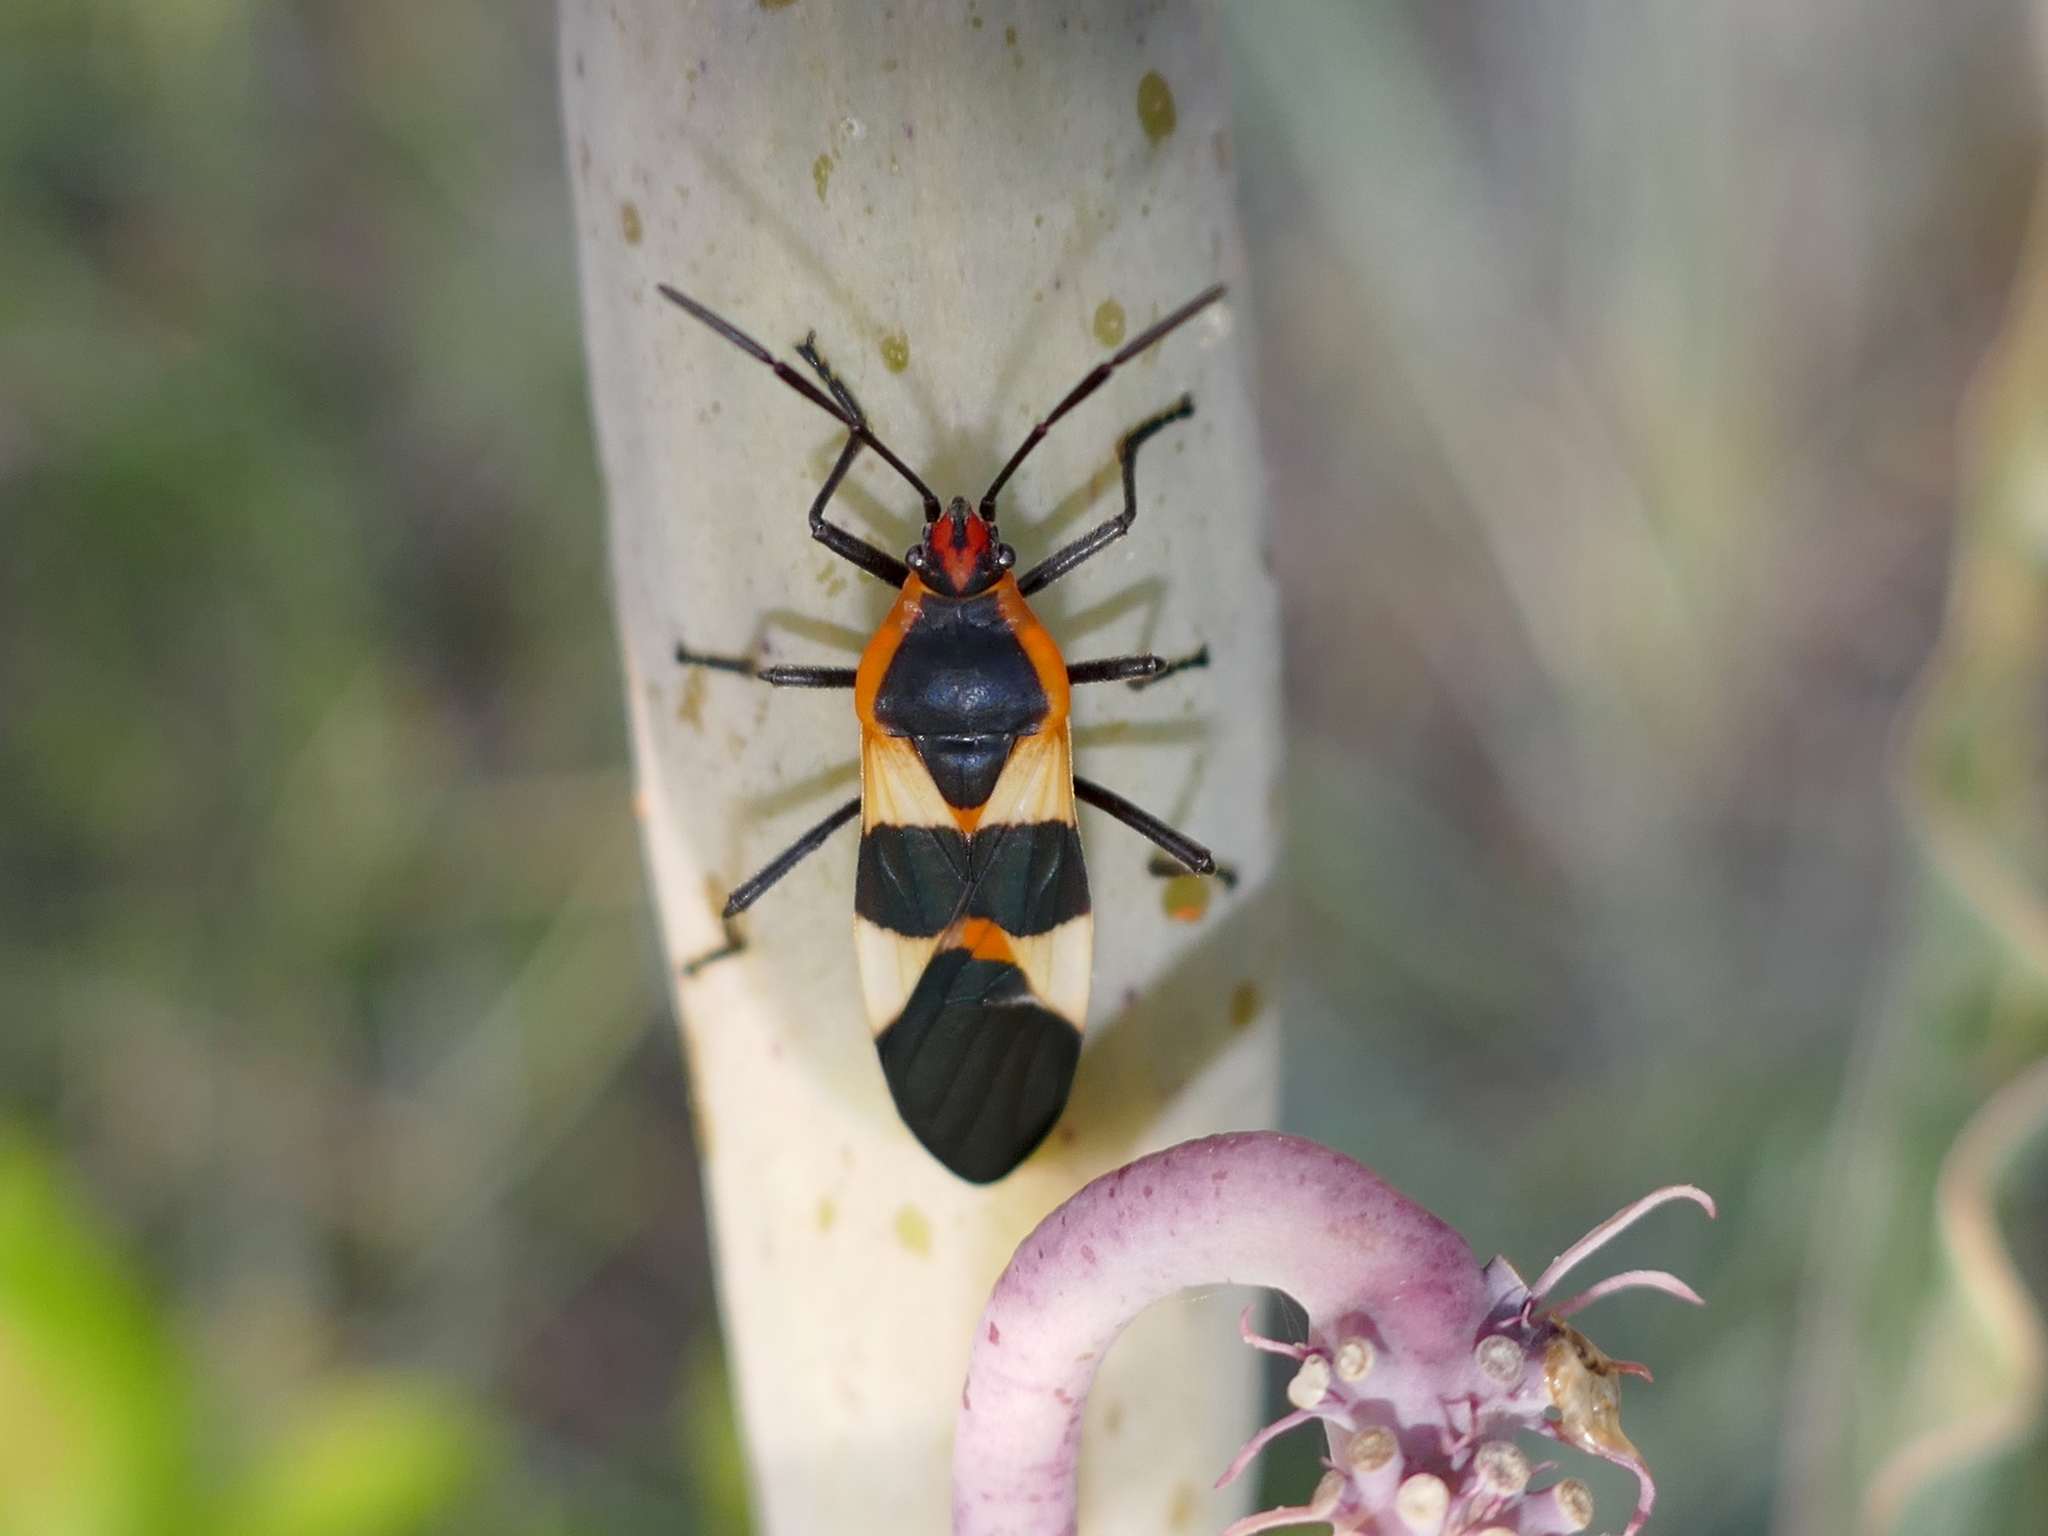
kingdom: Animalia
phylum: Arthropoda
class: Insecta
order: Hemiptera
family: Lygaeidae
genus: Oncopeltus
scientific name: Oncopeltus fasciatus
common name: Large milkweed bug
